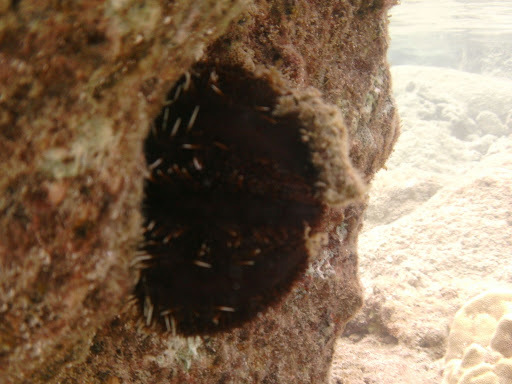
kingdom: Animalia
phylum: Echinodermata
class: Echinoidea
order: Camarodonta
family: Toxopneustidae
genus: Tripneustes
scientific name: Tripneustes gratilla
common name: Bischofsmützenseeigel
